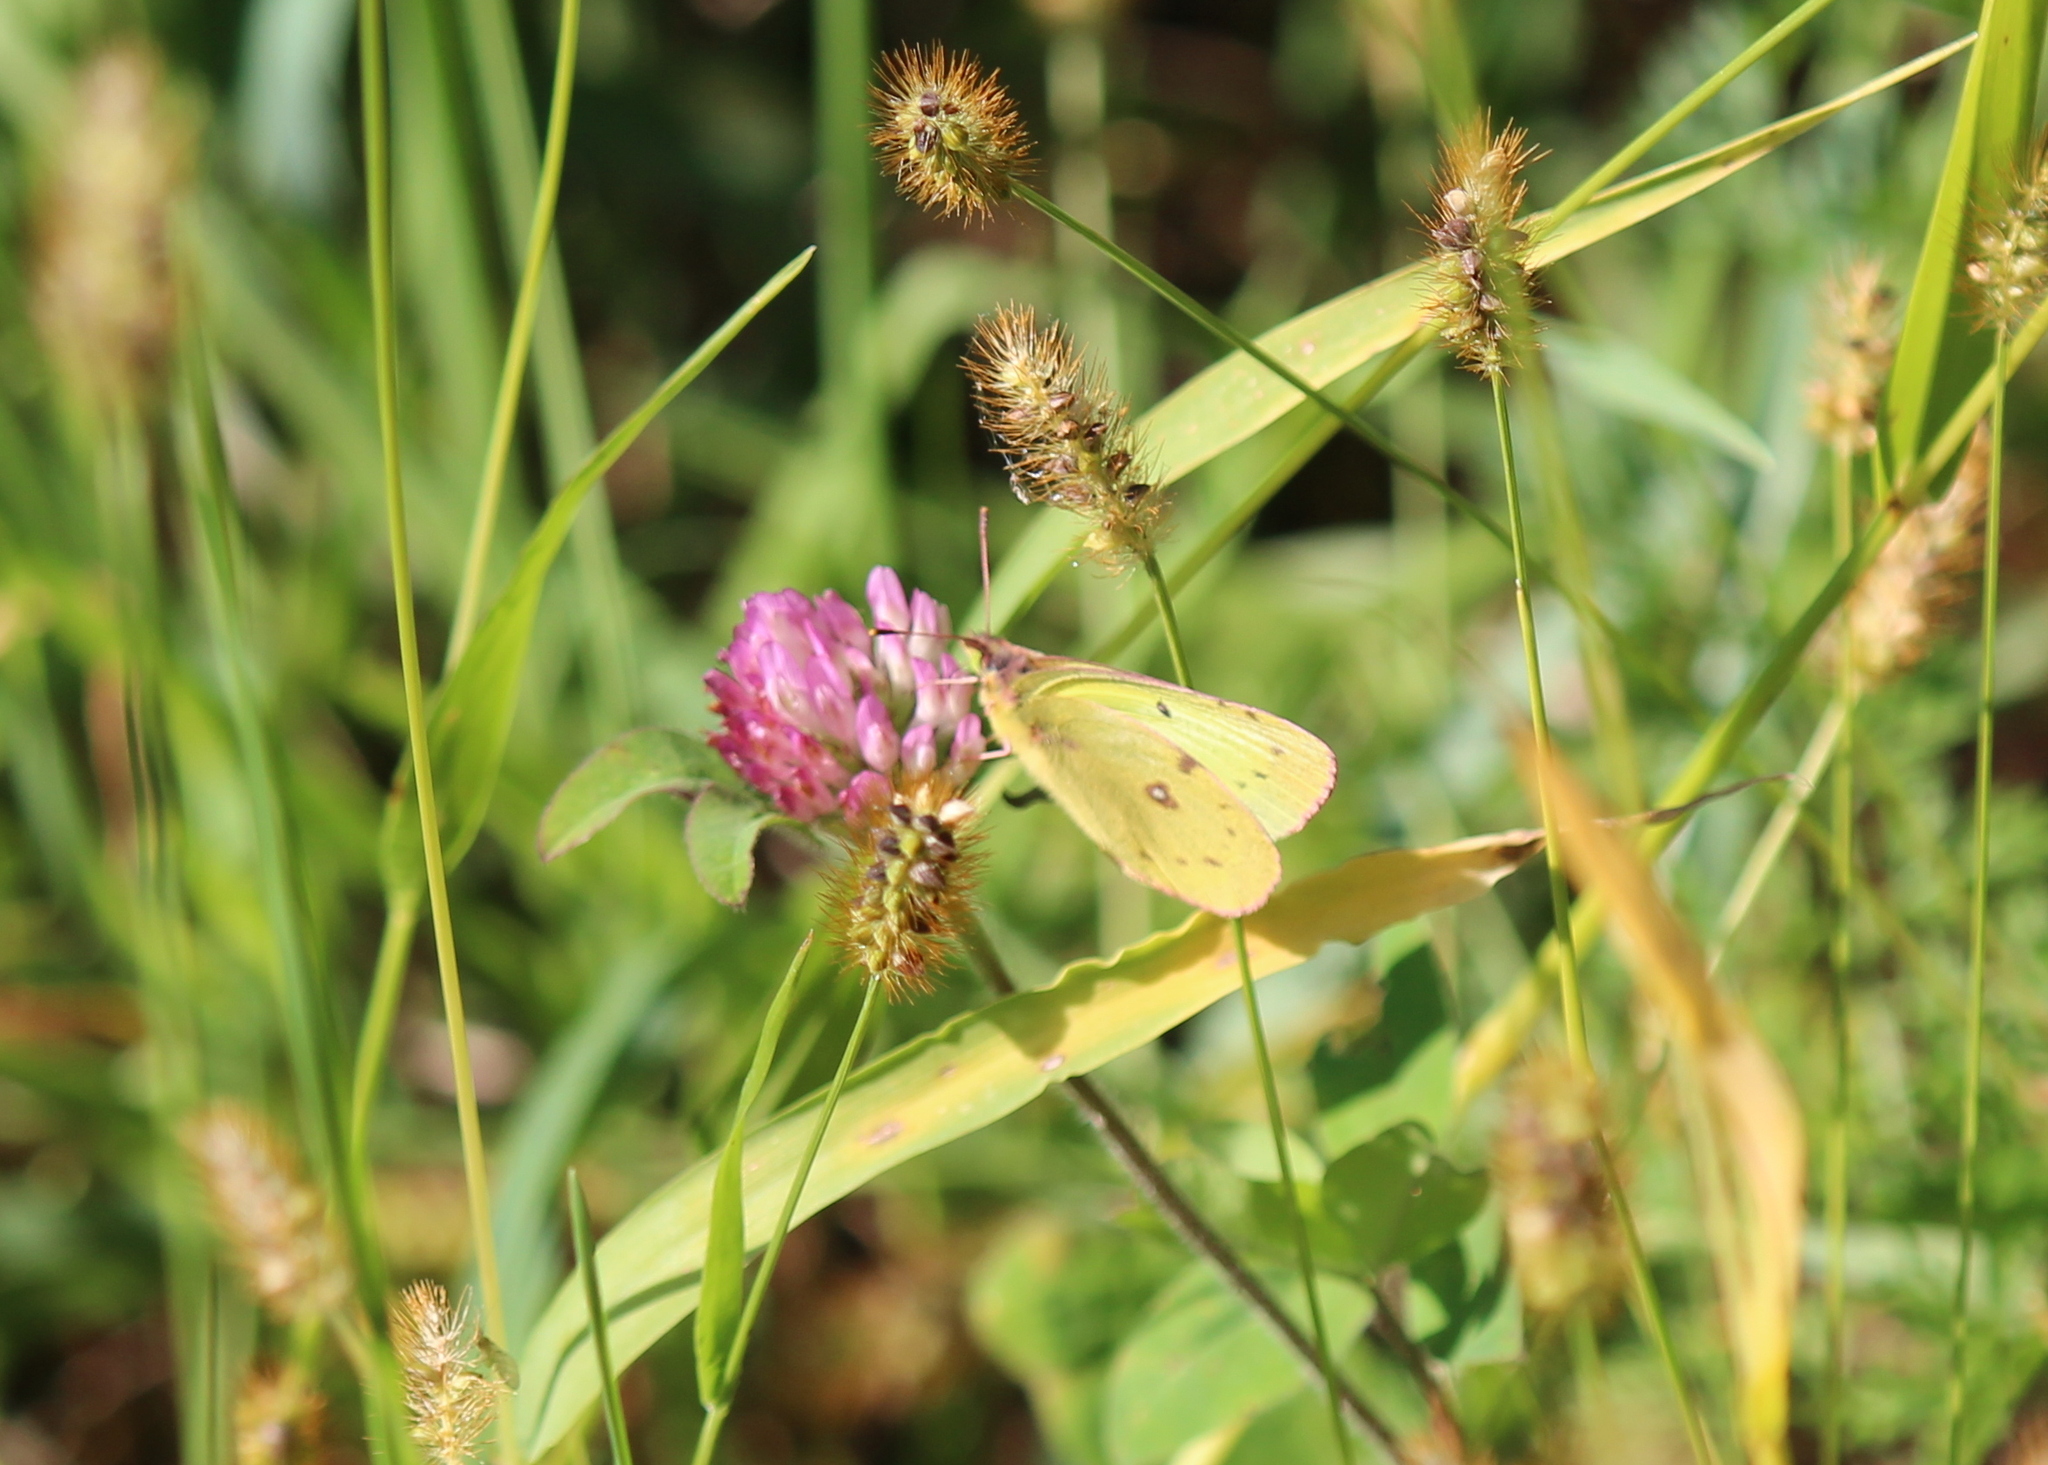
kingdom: Animalia
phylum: Arthropoda
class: Insecta
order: Lepidoptera
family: Pieridae
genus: Colias
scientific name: Colias philodice
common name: Clouded sulphur
